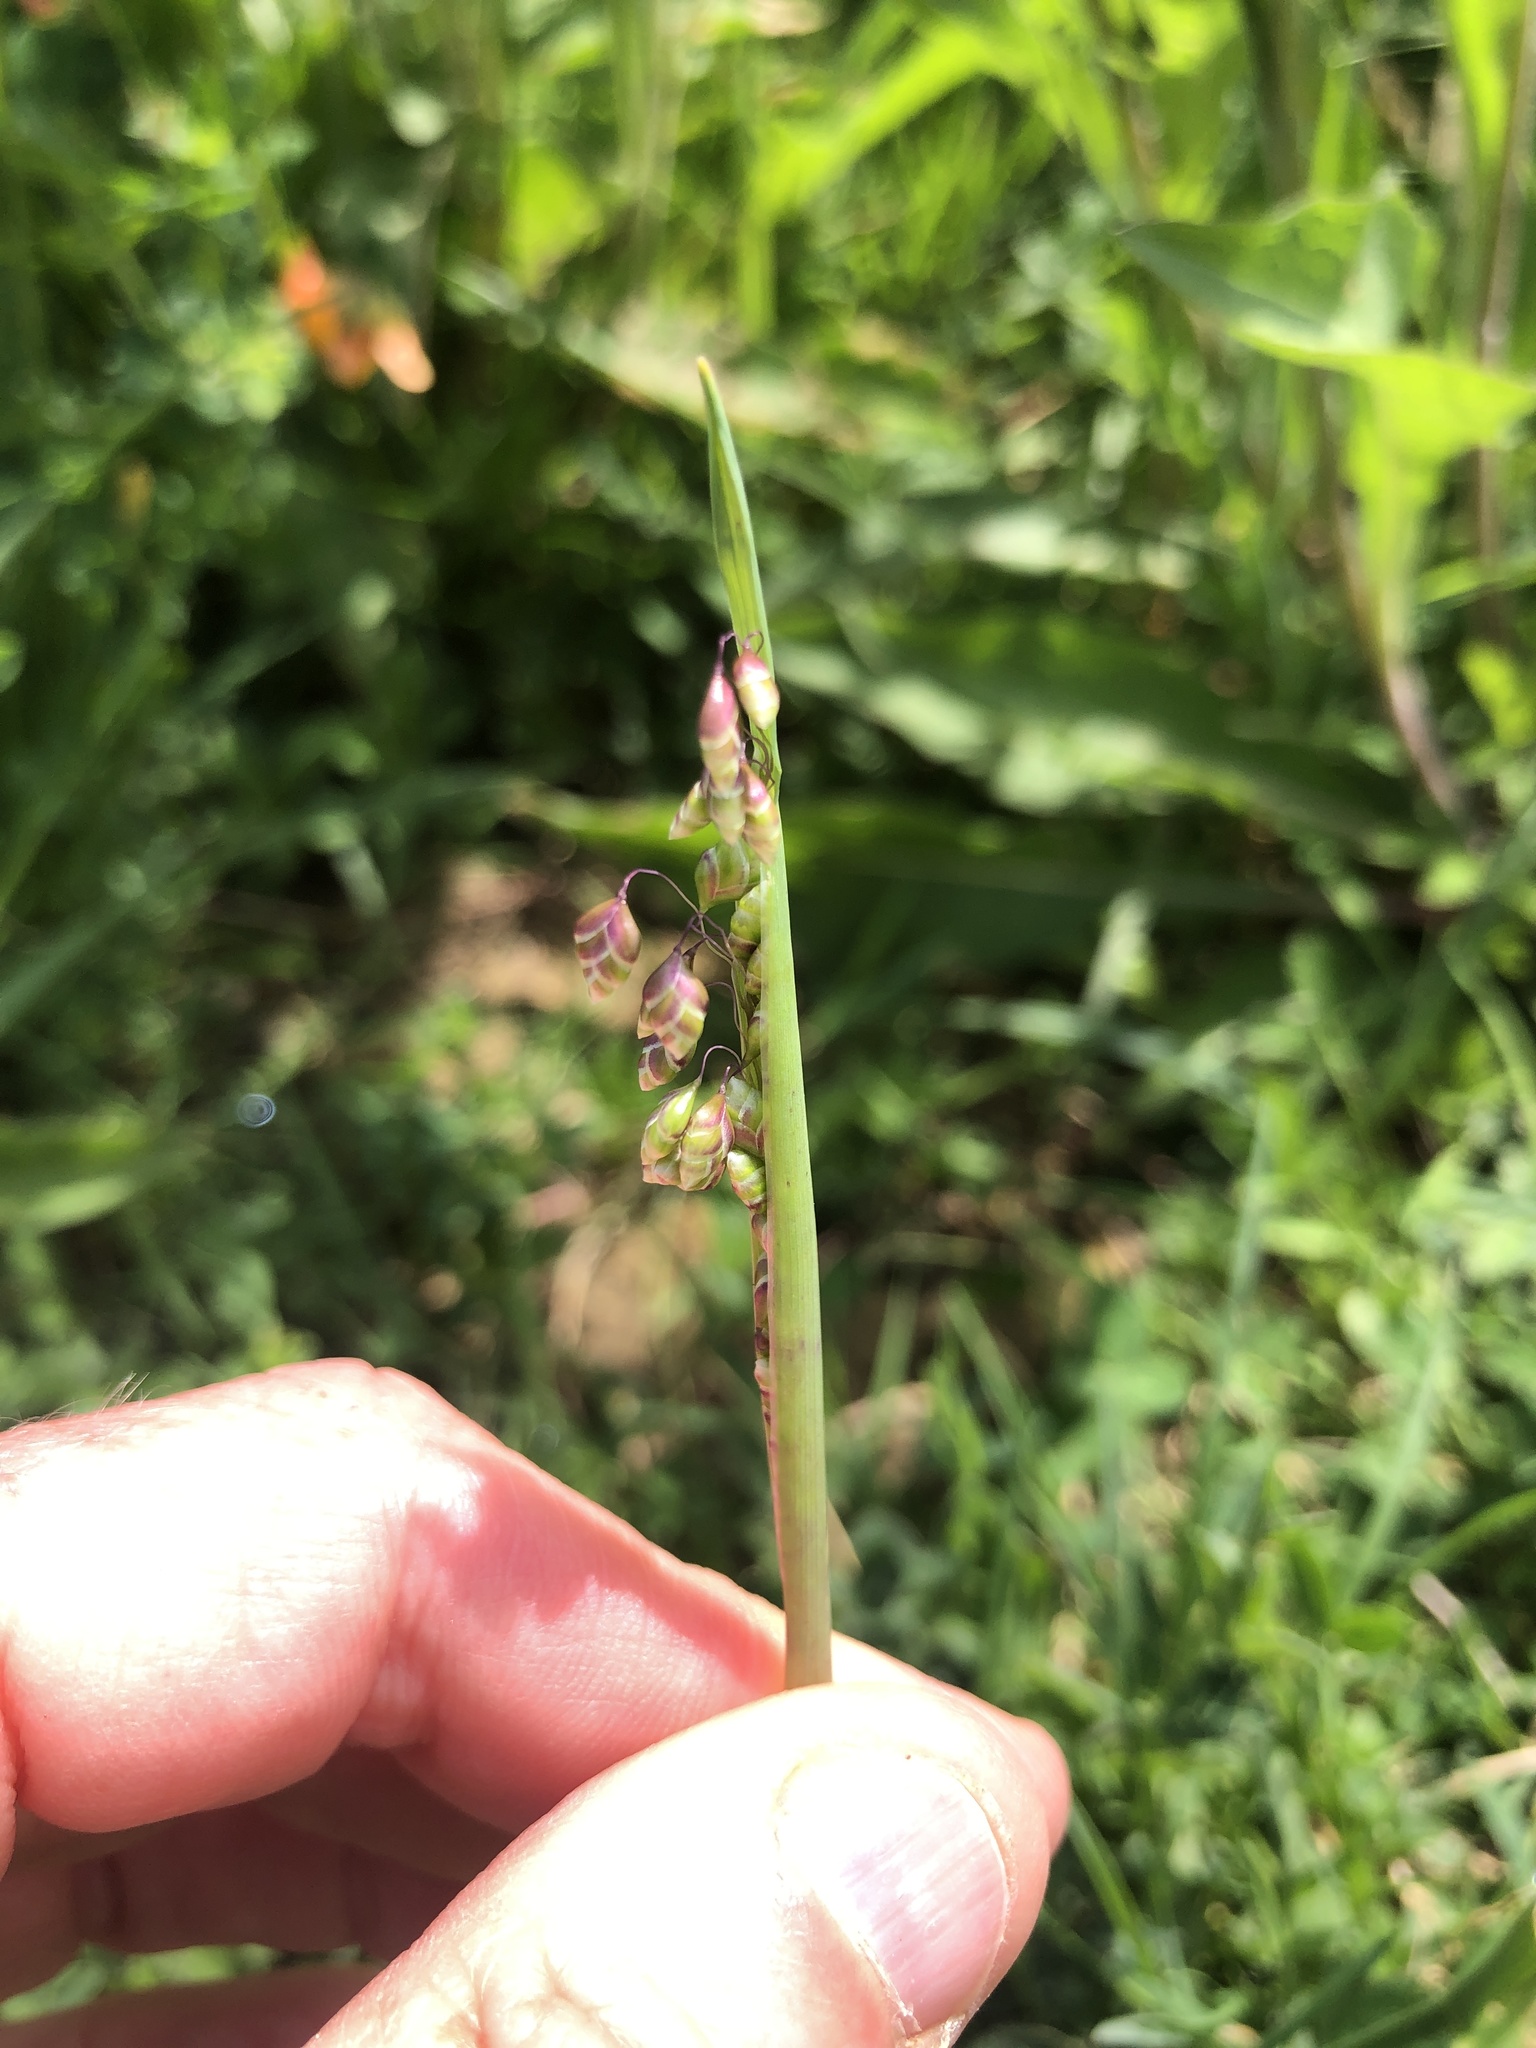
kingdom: Plantae
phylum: Tracheophyta
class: Liliopsida
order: Poales
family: Poaceae
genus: Briza
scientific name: Briza media
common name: Quaking grass
